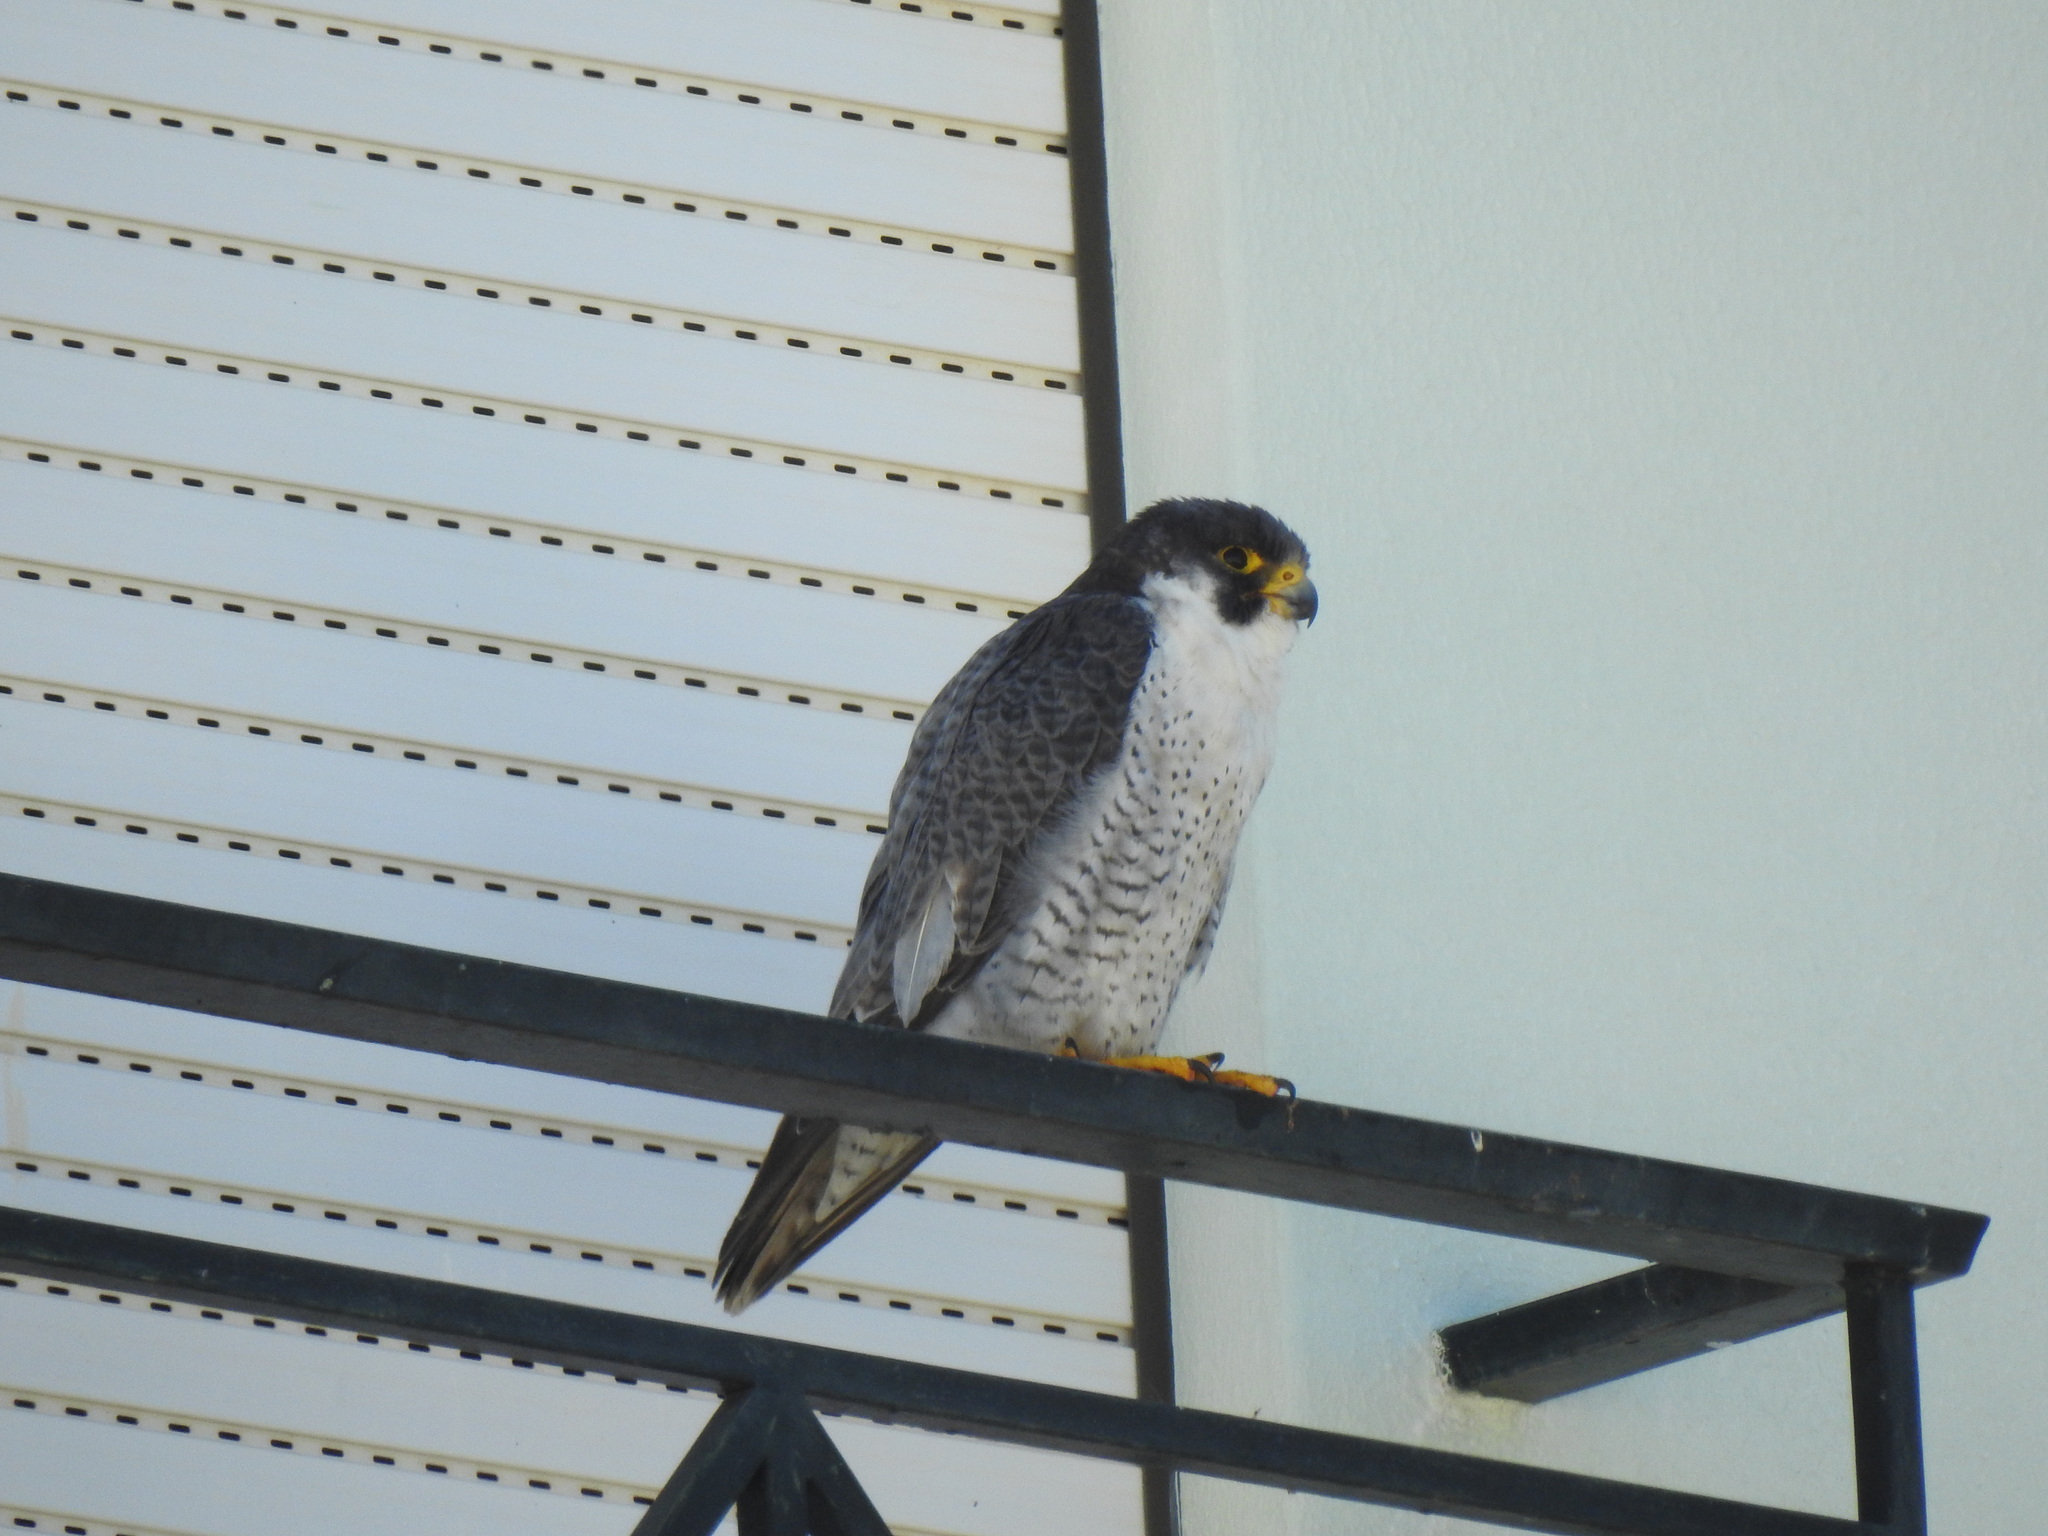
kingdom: Animalia
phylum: Chordata
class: Aves
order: Falconiformes
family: Falconidae
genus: Falco
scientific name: Falco peregrinus
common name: Peregrine falcon
